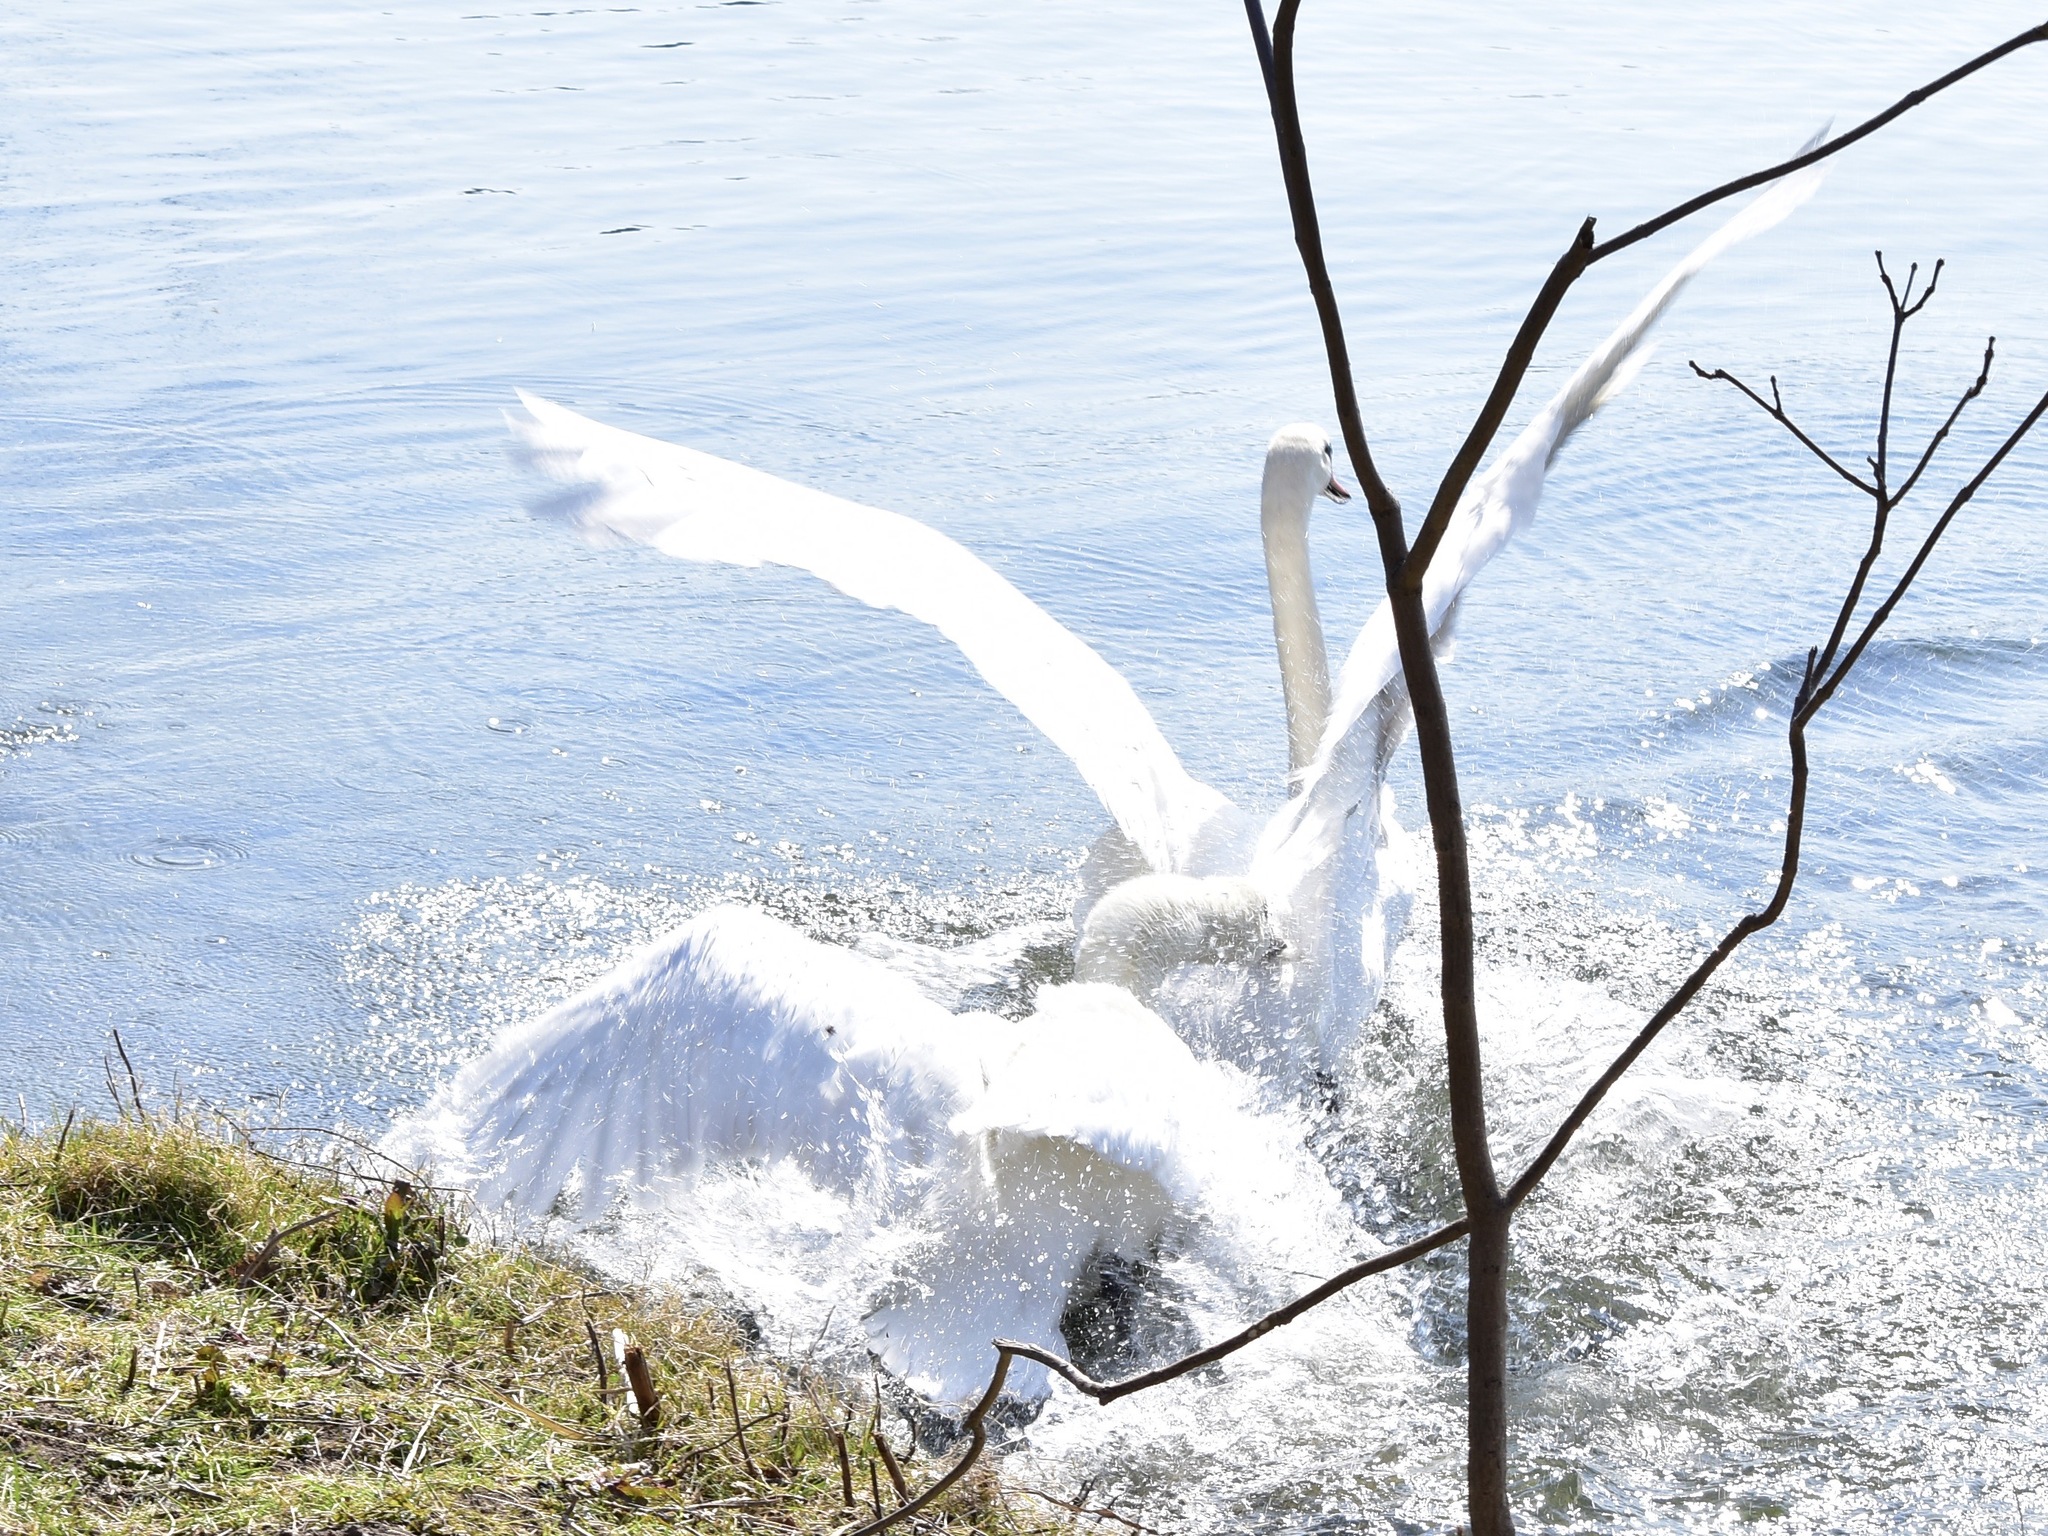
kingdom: Animalia
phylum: Chordata
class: Aves
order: Anseriformes
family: Anatidae
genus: Cygnus
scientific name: Cygnus olor
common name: Mute swan
